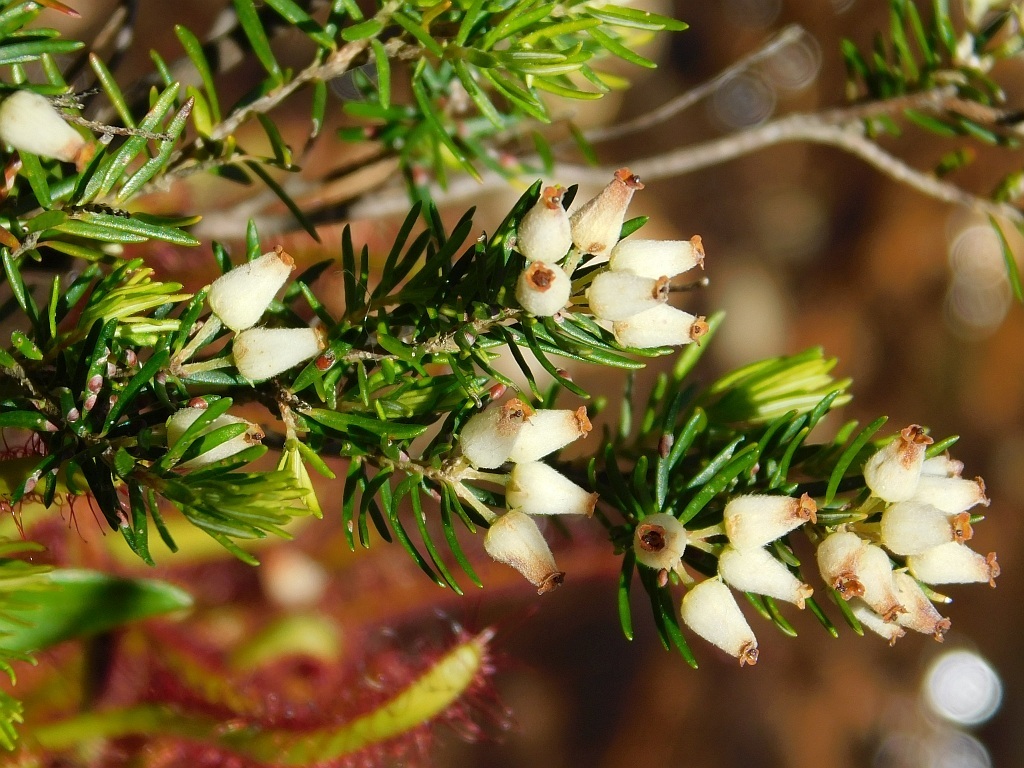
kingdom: Plantae
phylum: Tracheophyta
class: Magnoliopsida
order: Ericales
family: Ericaceae
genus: Erica
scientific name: Erica caffra
